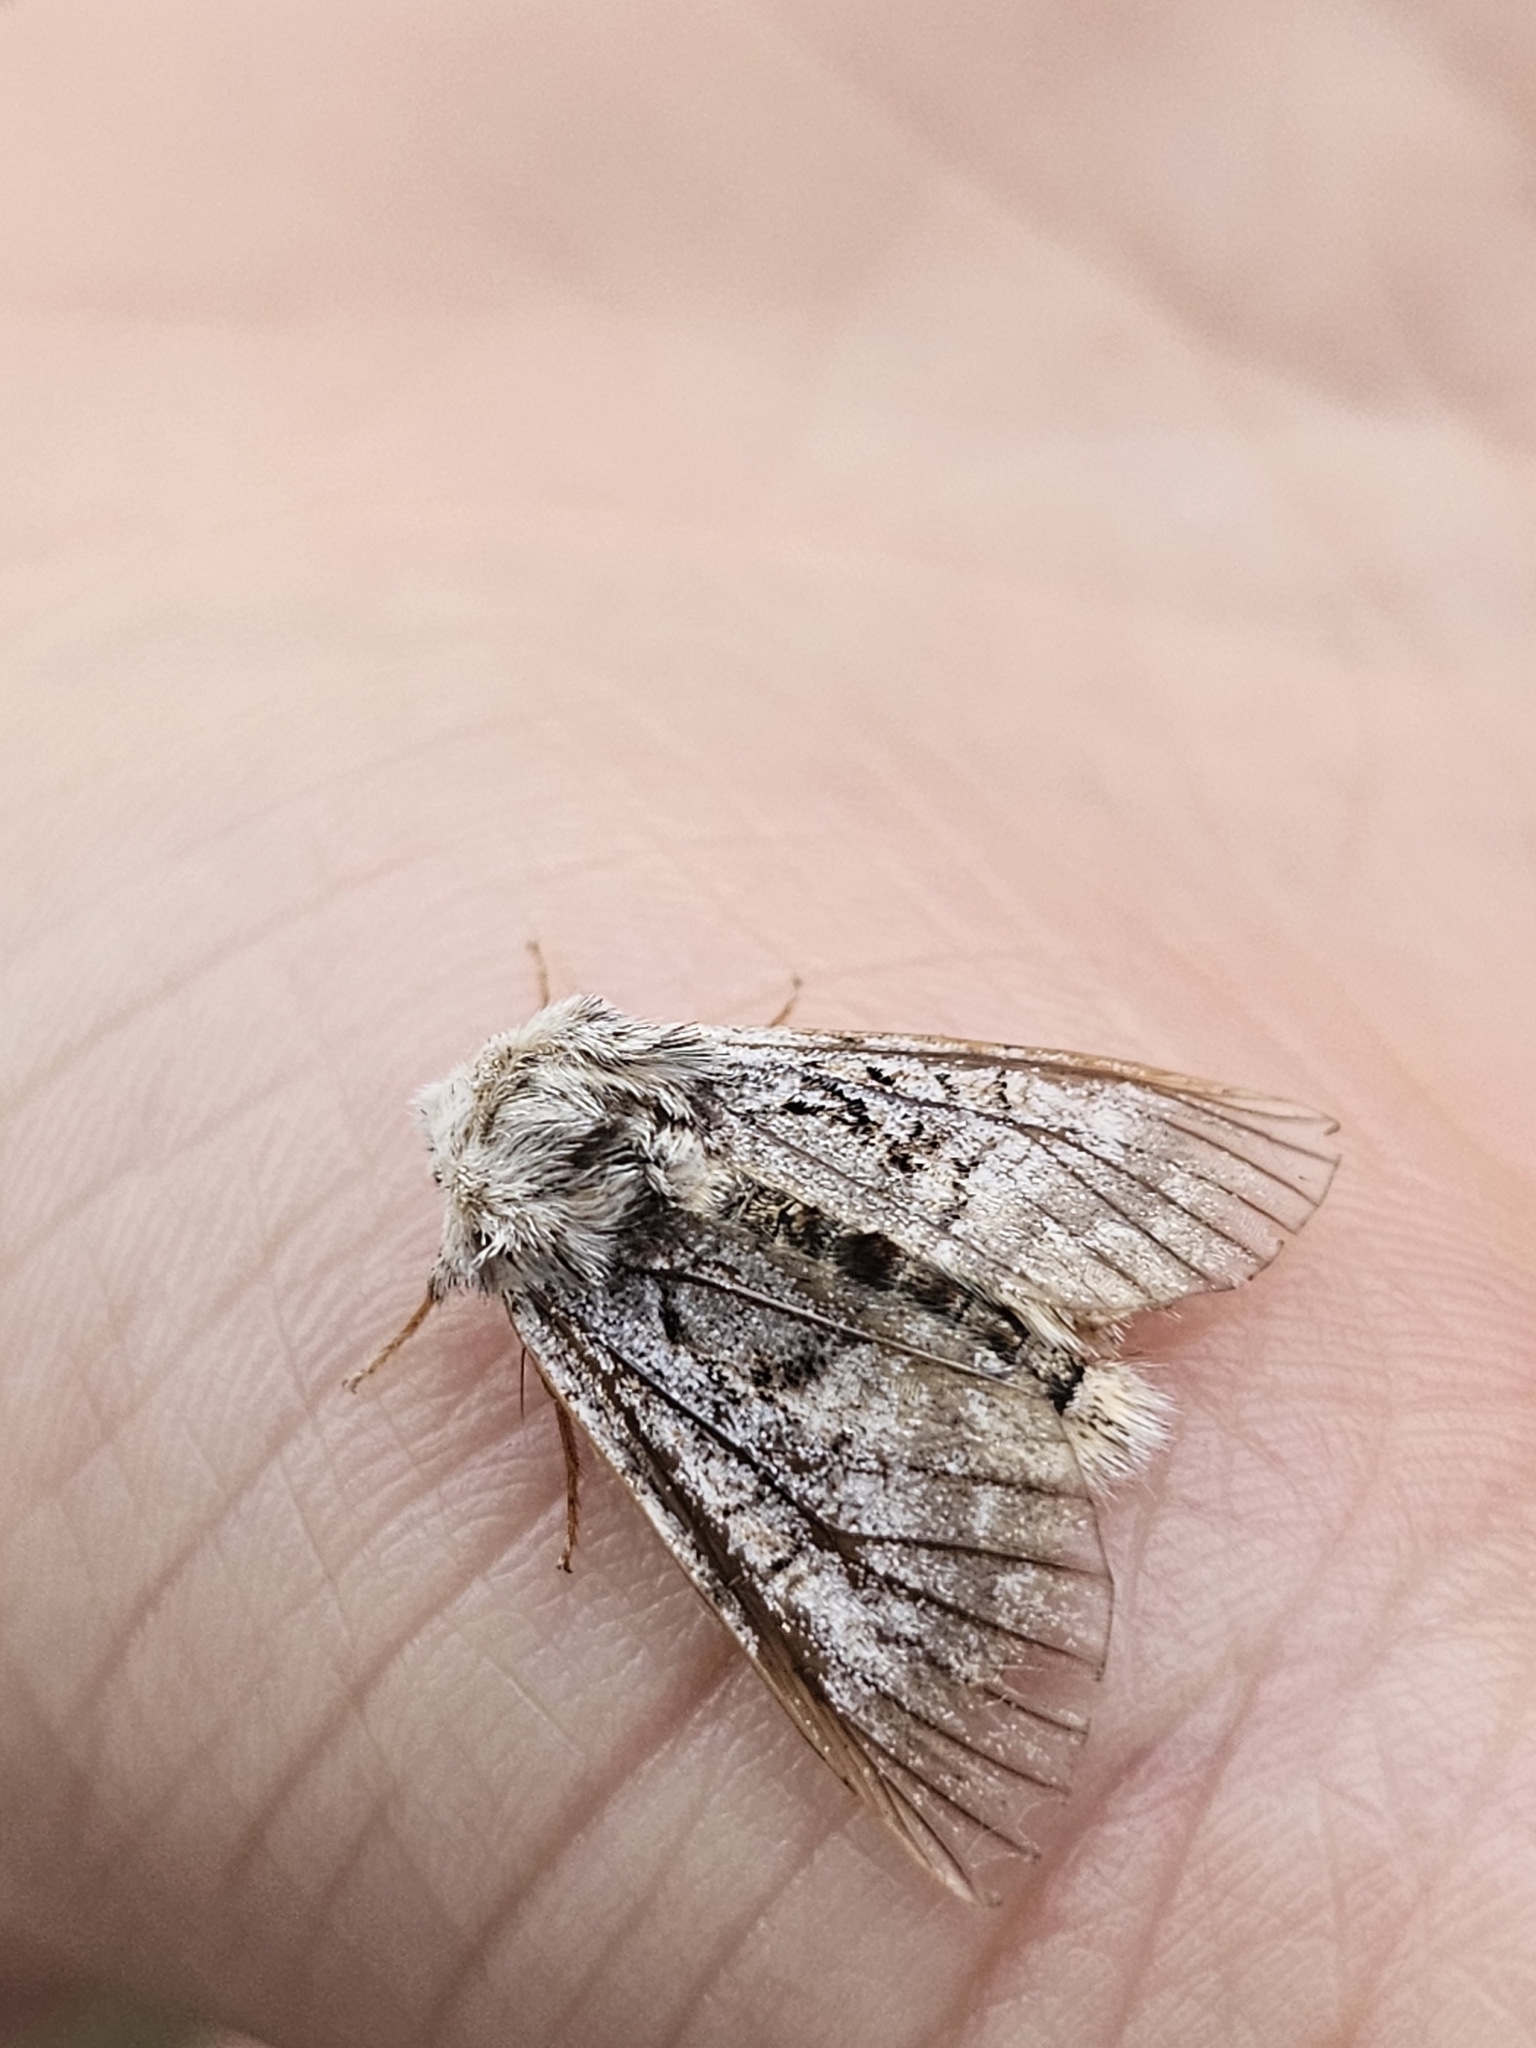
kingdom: Animalia
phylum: Arthropoda
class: Insecta
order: Lepidoptera
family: Noctuidae
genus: Colocasia
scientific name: Colocasia coryli
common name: Nut-tree tussock
